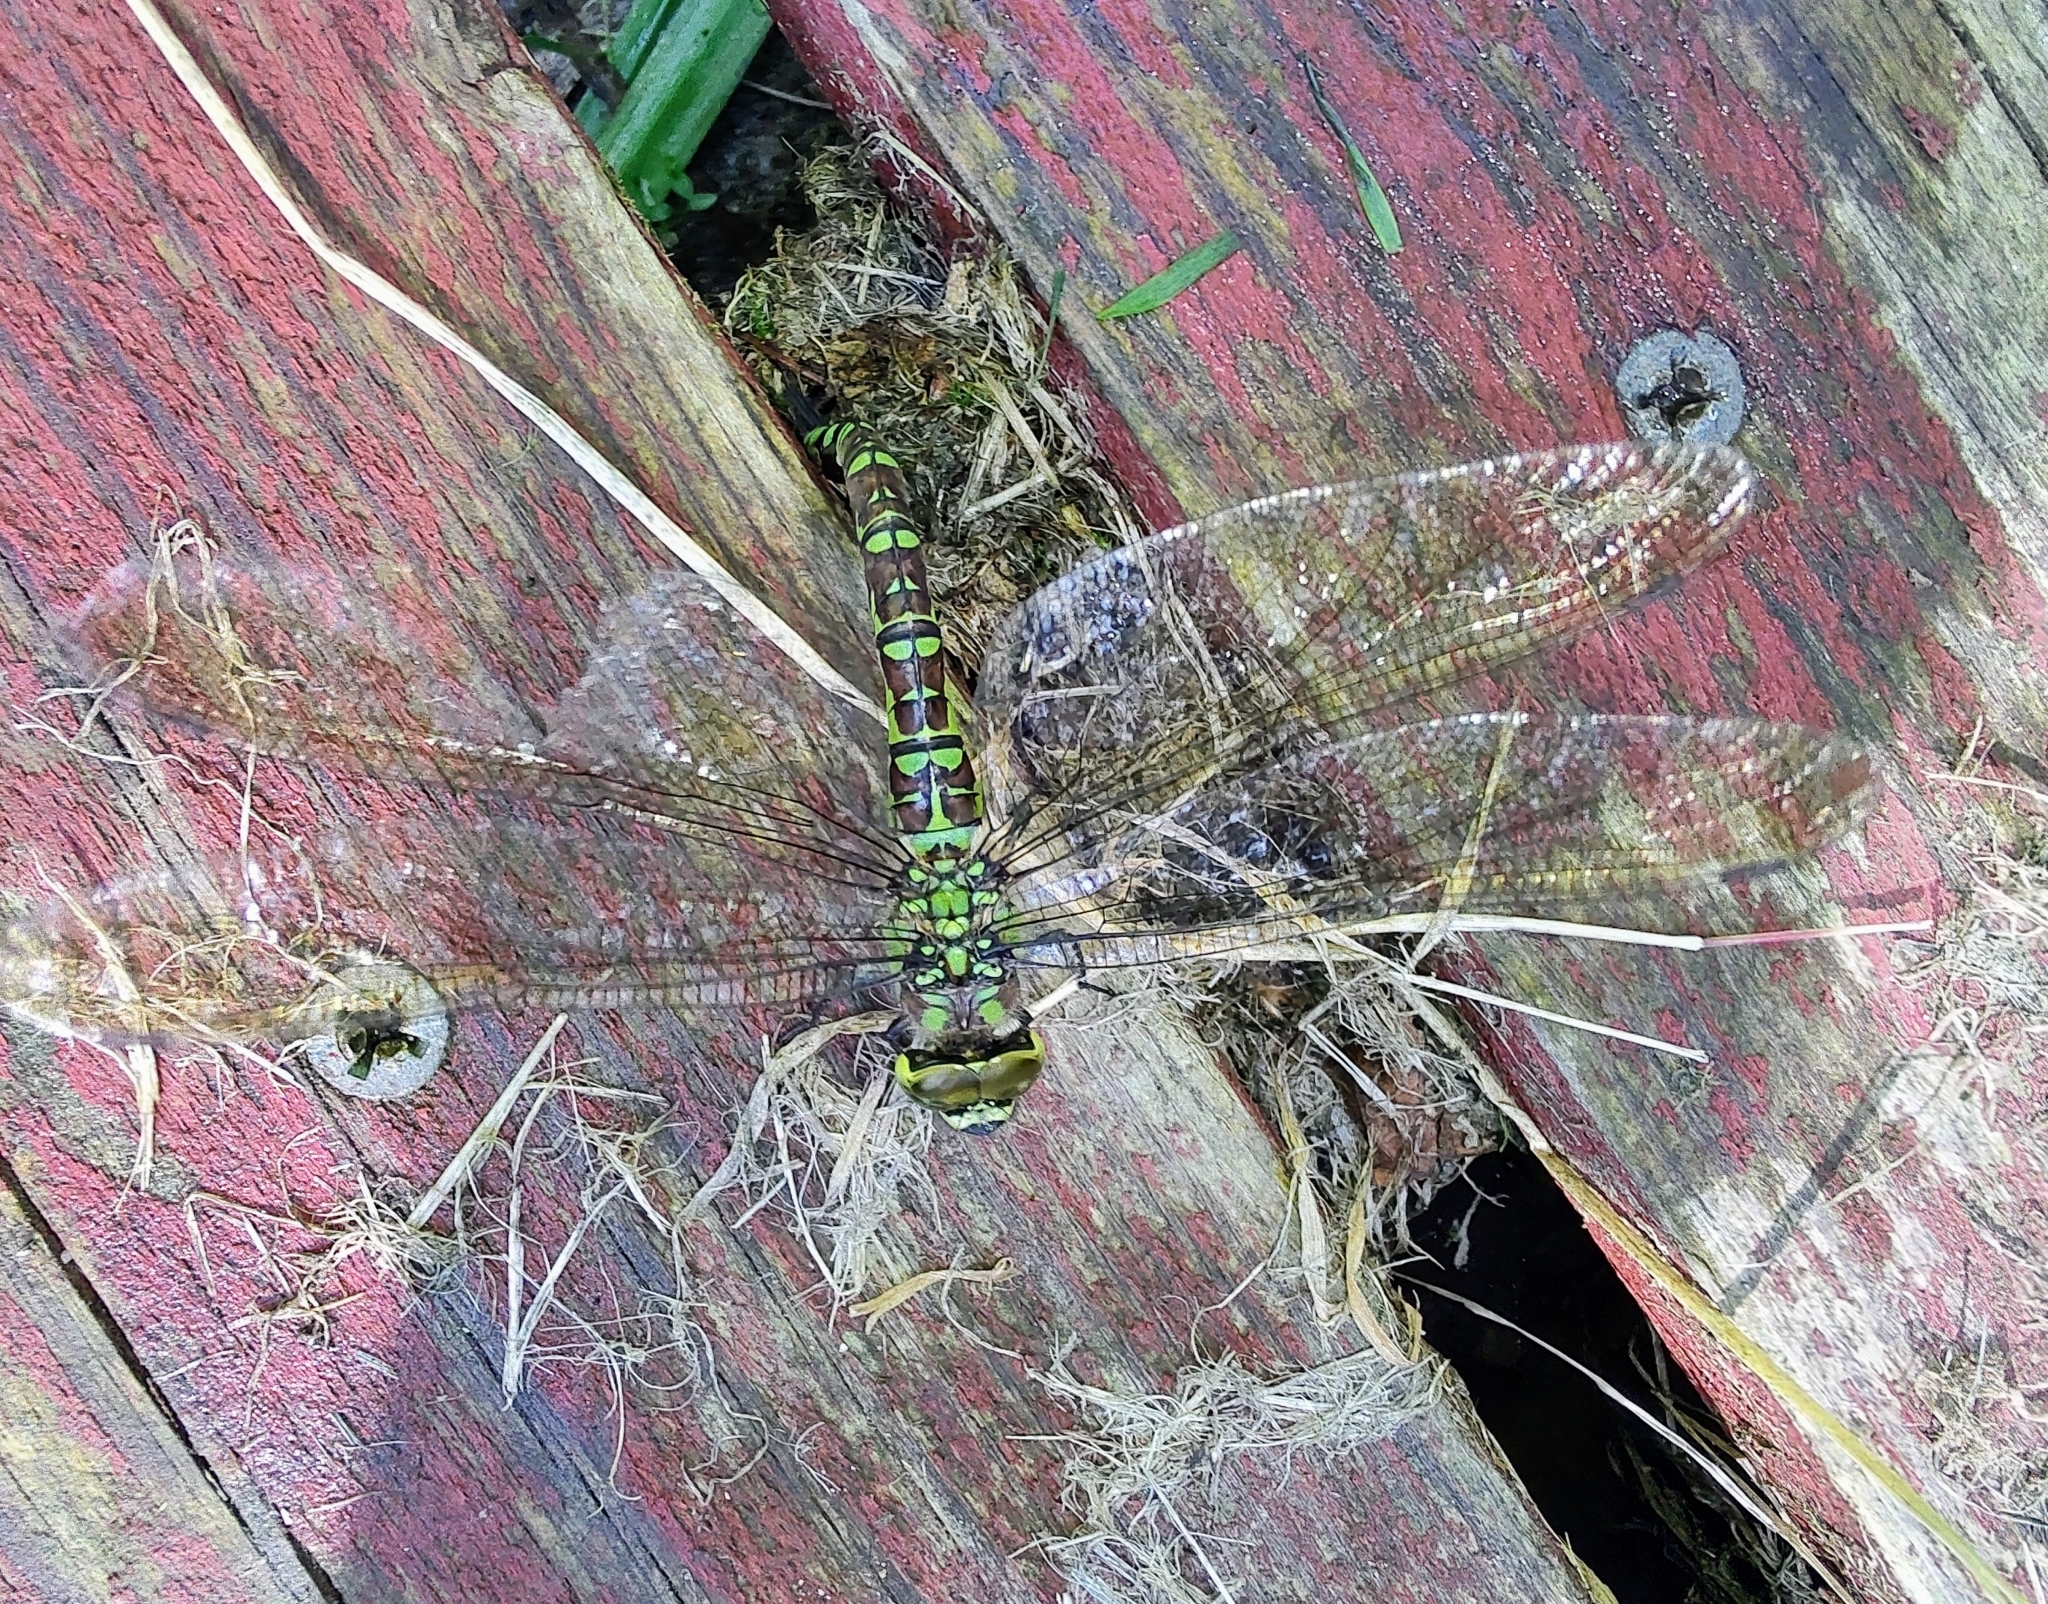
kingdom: Animalia
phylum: Arthropoda
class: Insecta
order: Odonata
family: Aeshnidae
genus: Aeshna
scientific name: Aeshna cyanea
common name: Southern hawker
